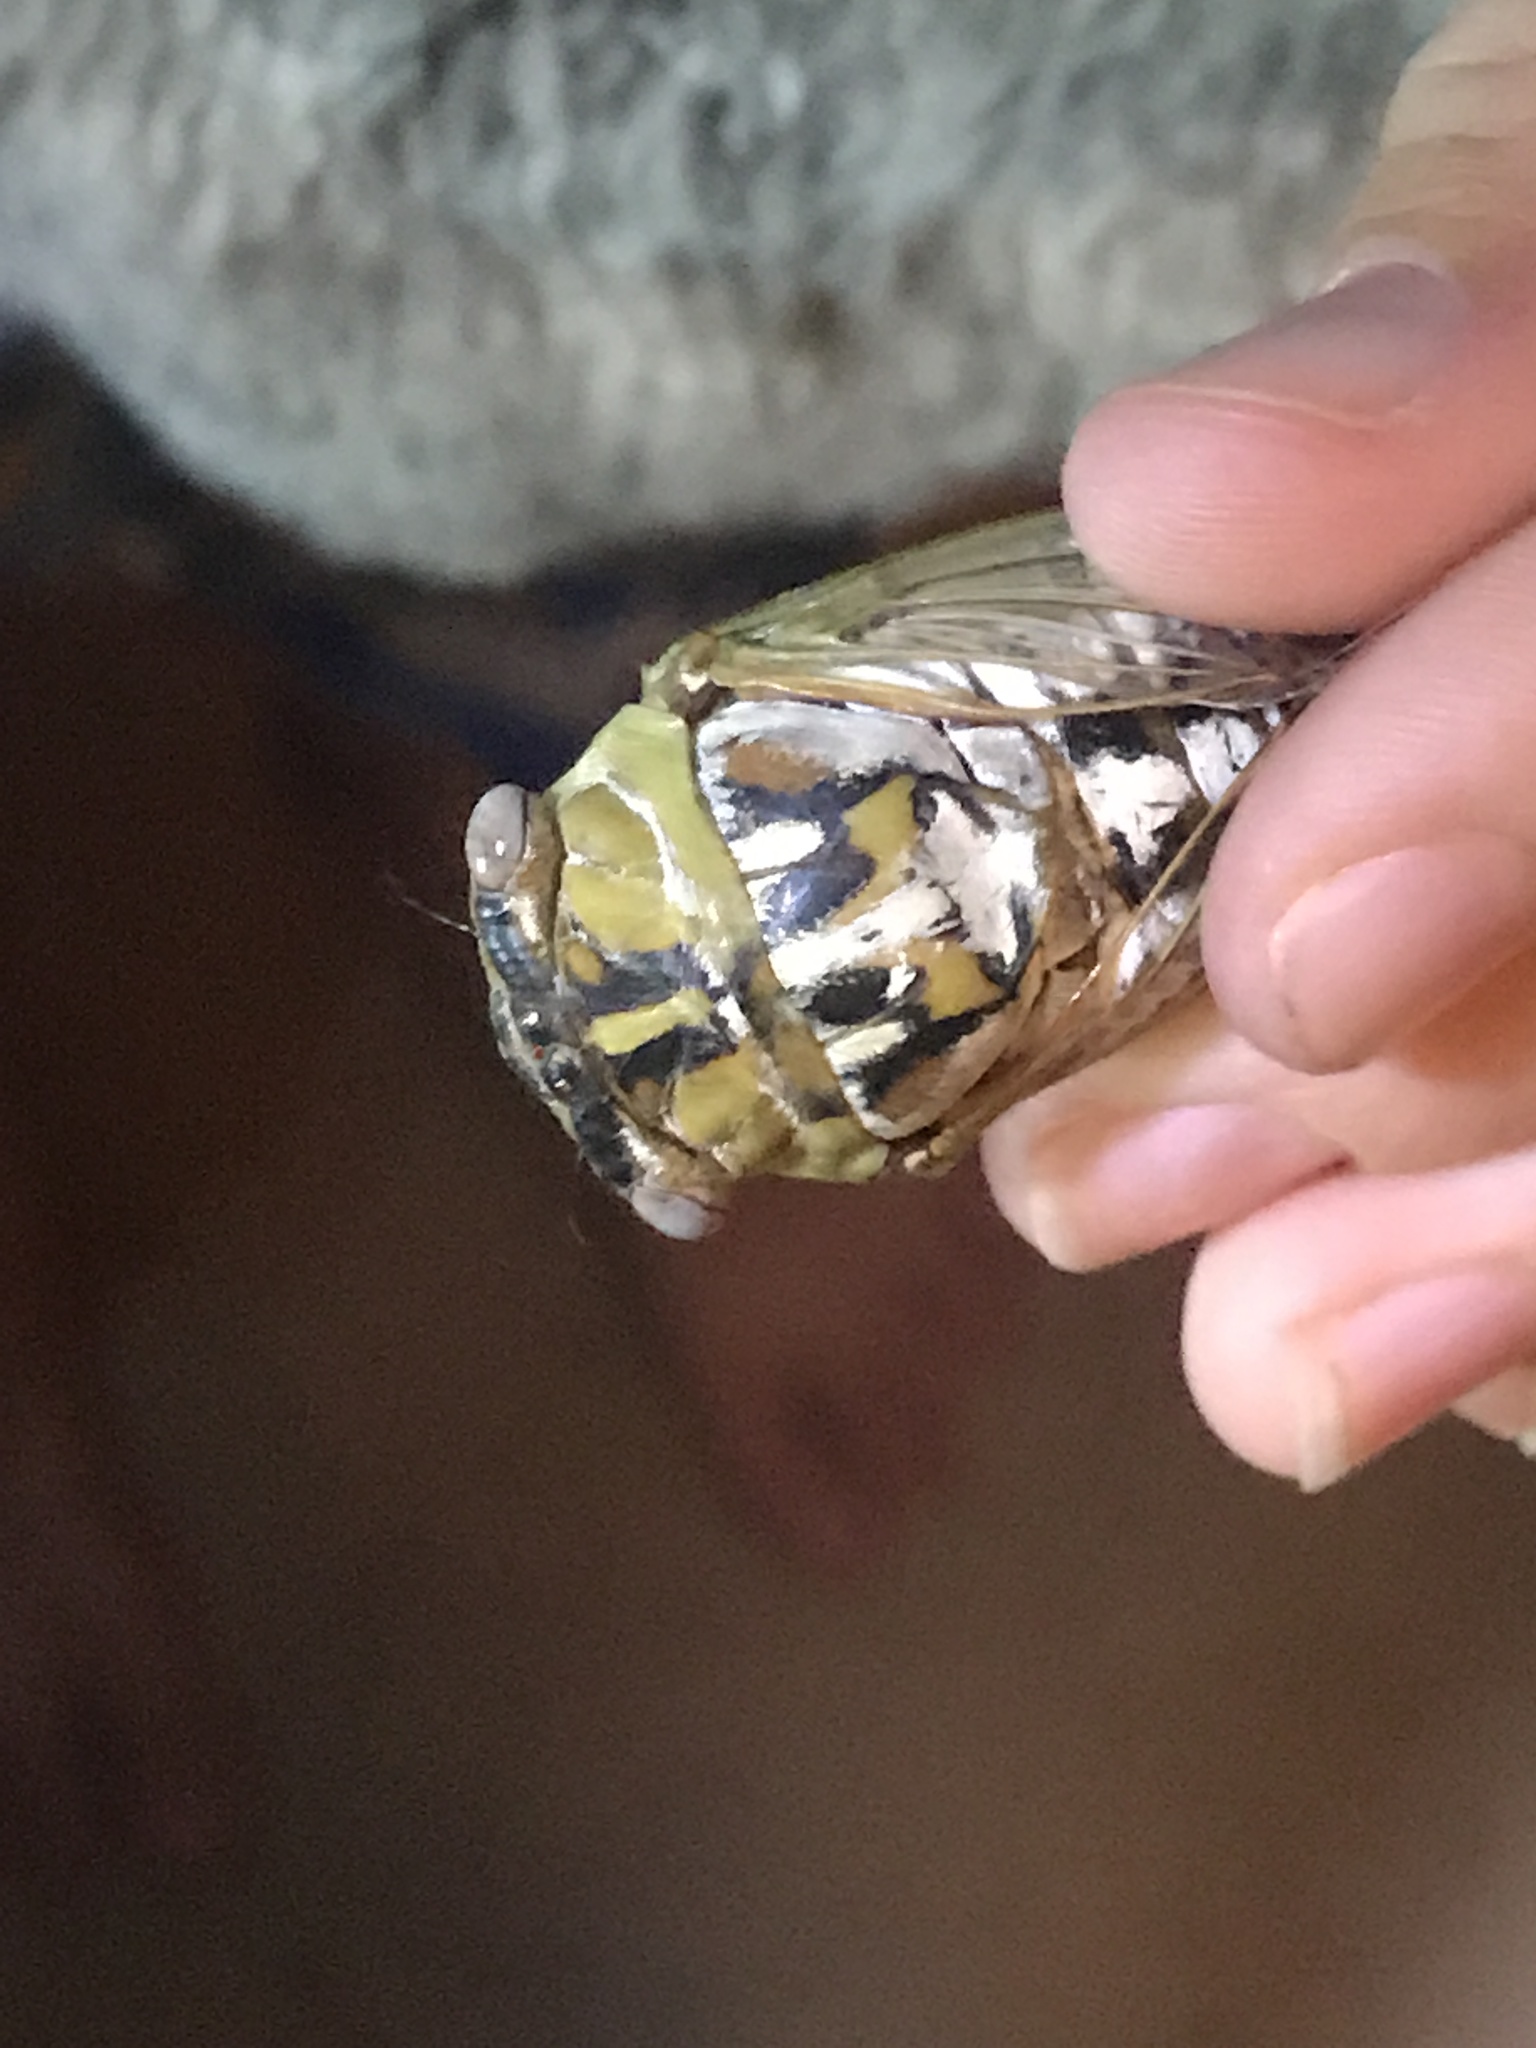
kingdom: Animalia
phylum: Arthropoda
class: Insecta
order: Hemiptera
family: Cicadidae
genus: Megatibicen
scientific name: Megatibicen dealbatus
